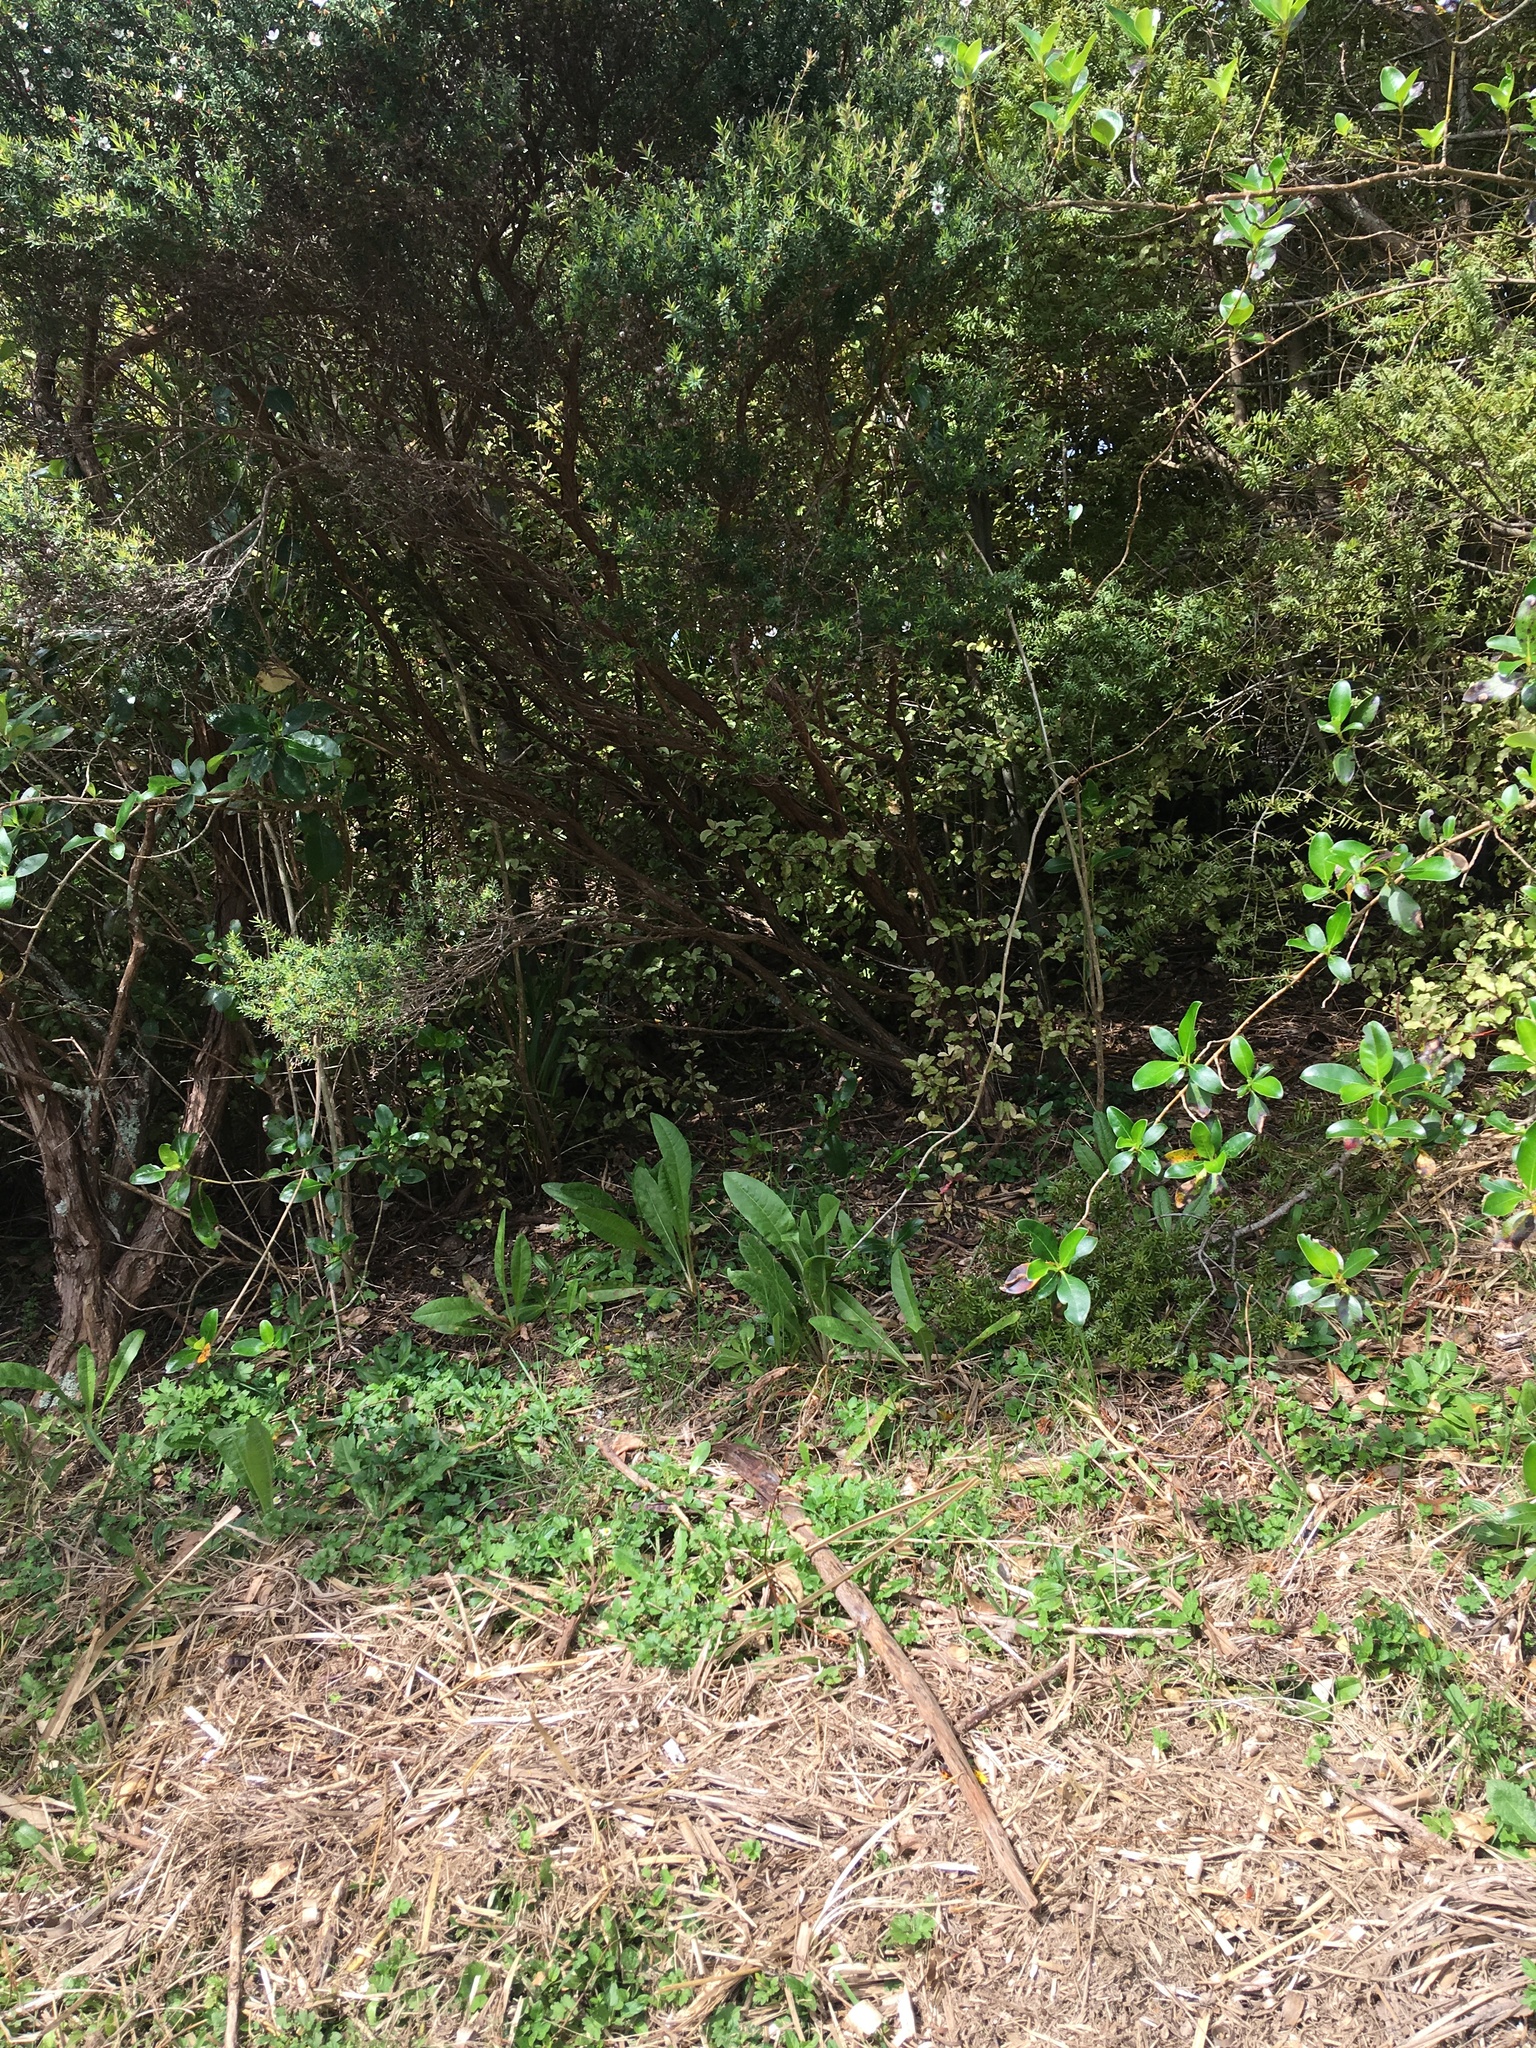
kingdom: Plantae
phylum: Tracheophyta
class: Magnoliopsida
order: Asterales
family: Asteraceae
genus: Helminthotheca
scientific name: Helminthotheca echioides
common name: Ox-tongue
